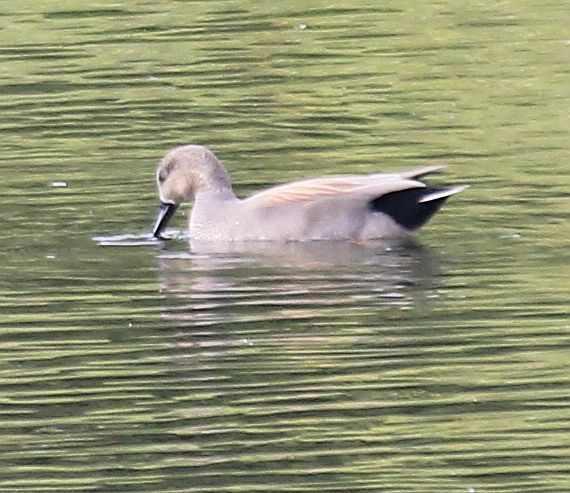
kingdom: Animalia
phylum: Chordata
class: Aves
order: Anseriformes
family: Anatidae
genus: Mareca
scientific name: Mareca strepera
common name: Gadwall
